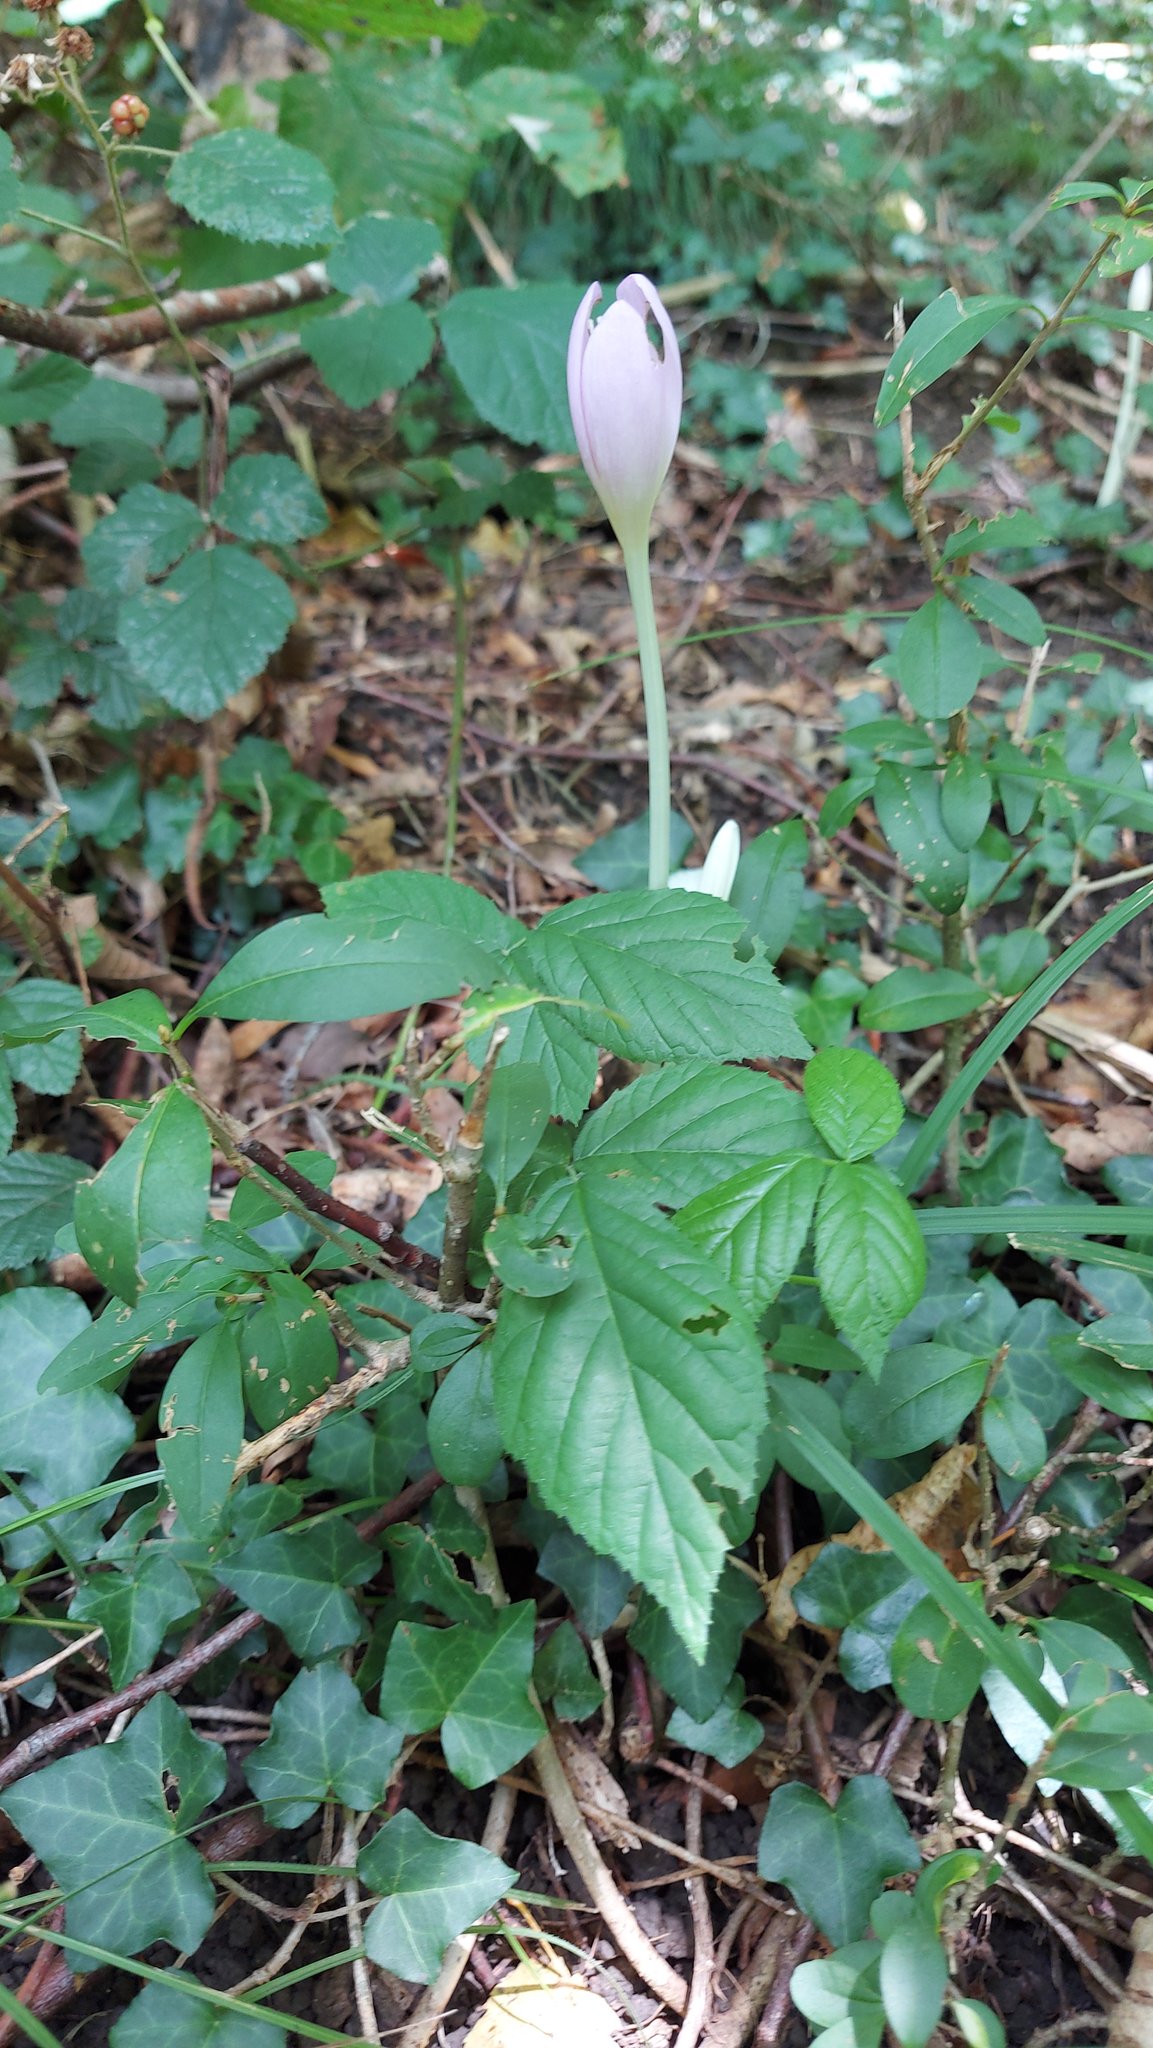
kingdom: Plantae
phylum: Tracheophyta
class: Liliopsida
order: Liliales
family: Colchicaceae
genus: Colchicum
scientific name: Colchicum autumnale
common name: Autumn crocus
